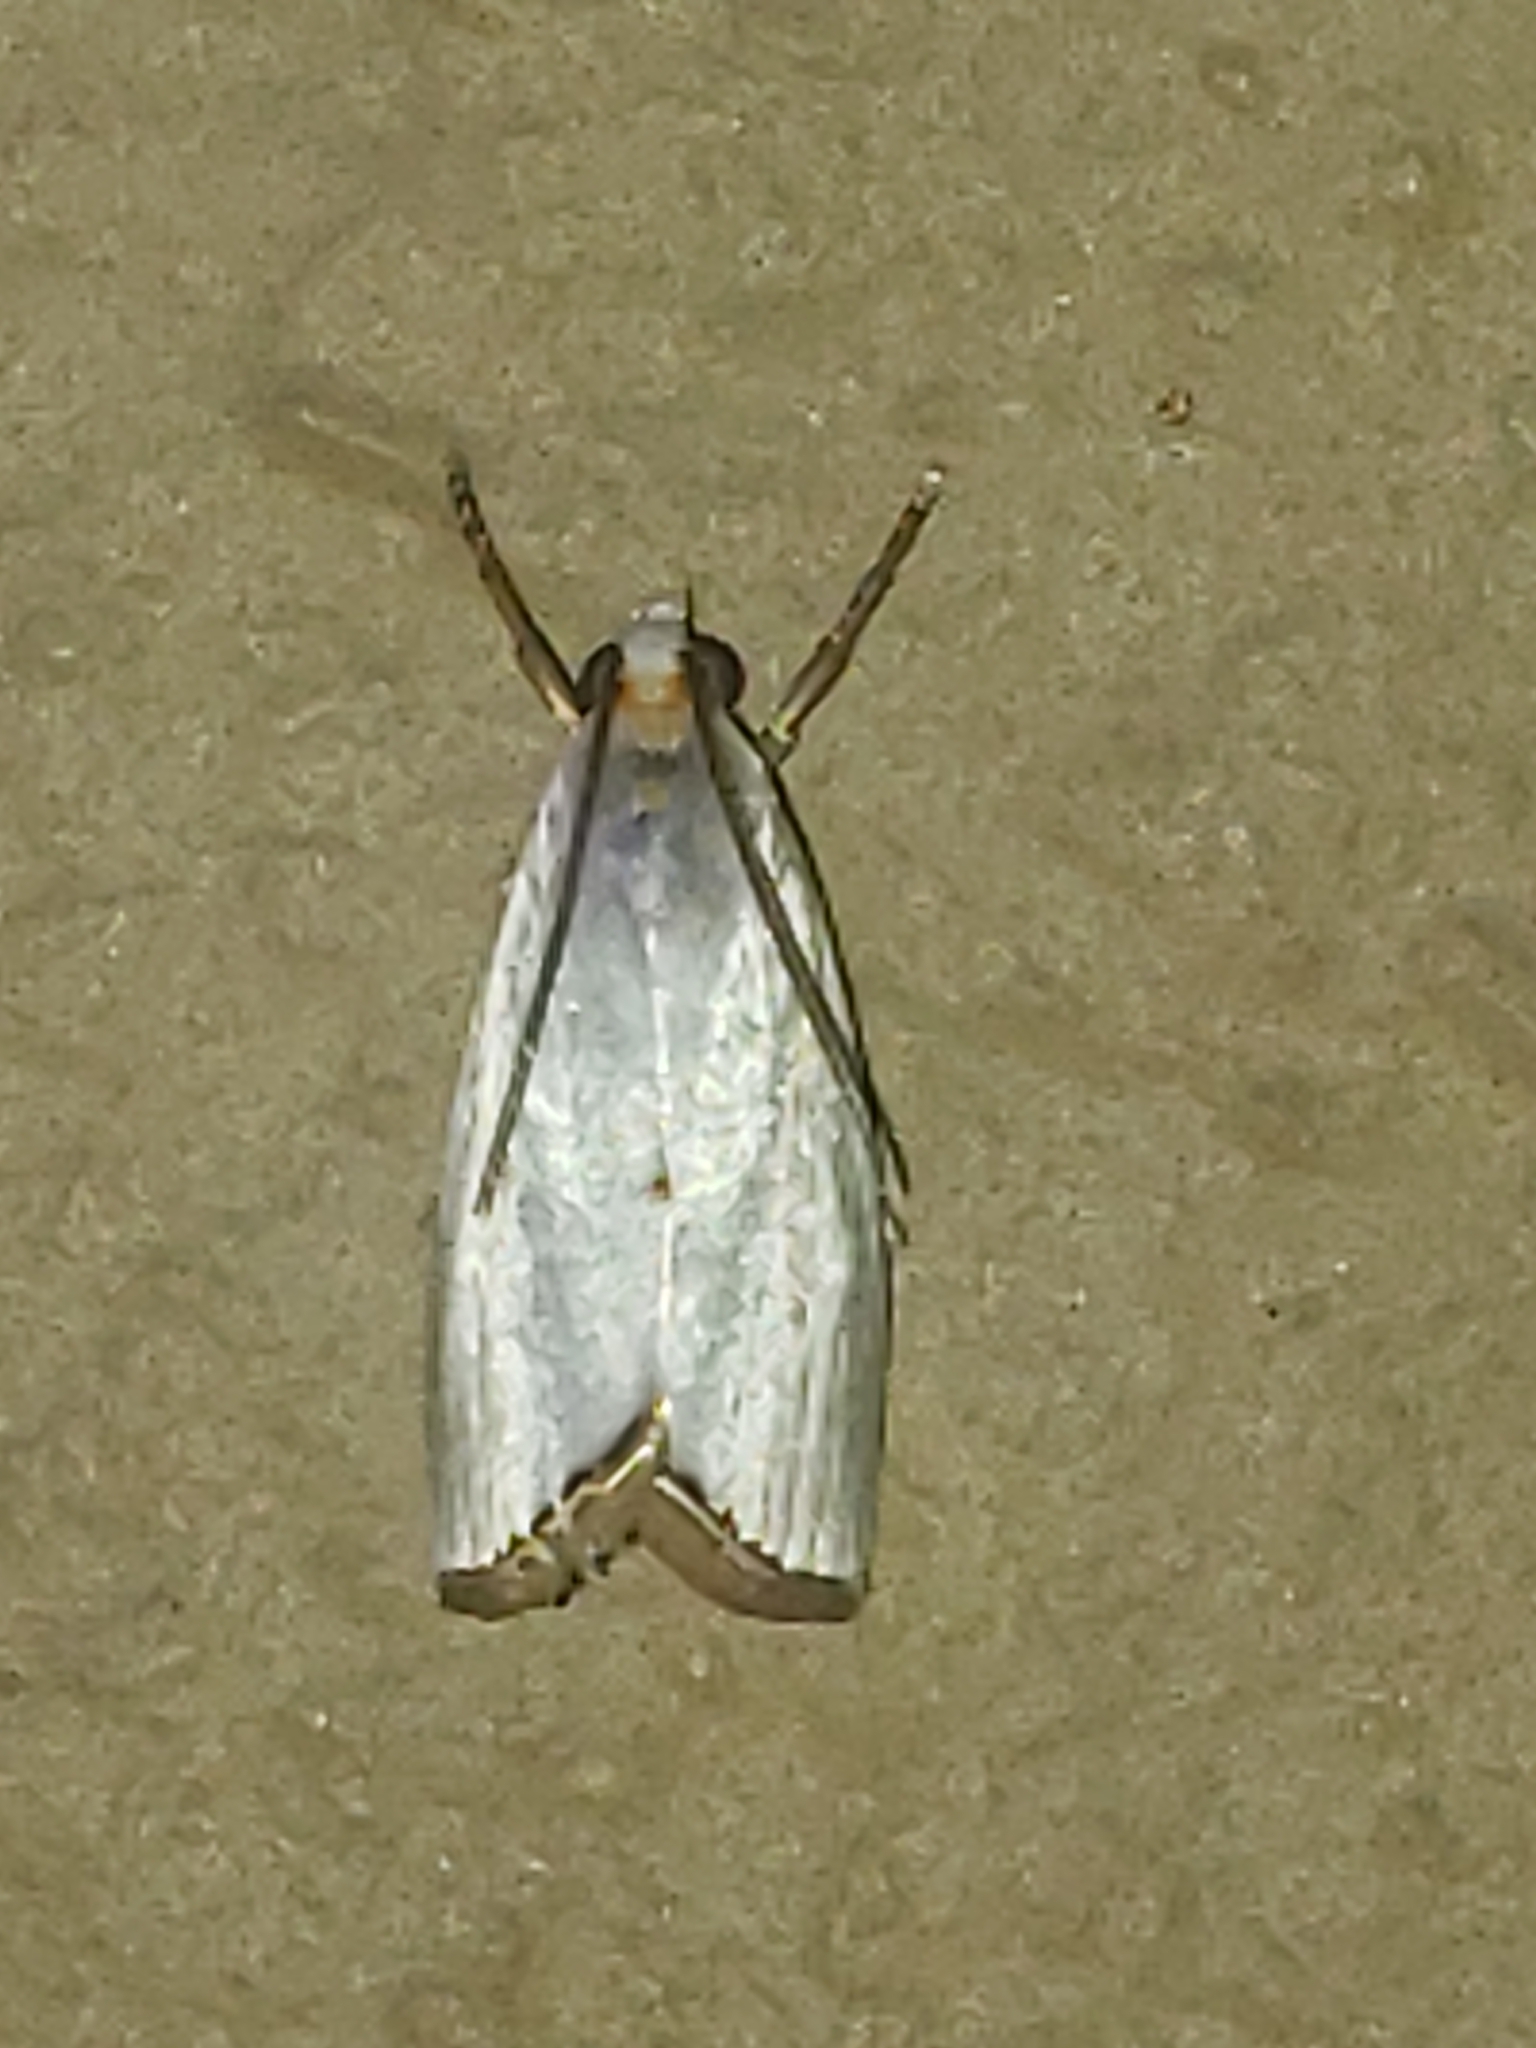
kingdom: Animalia
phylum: Arthropoda
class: Insecta
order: Lepidoptera
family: Crambidae
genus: Argyria
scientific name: Argyria nivalis
